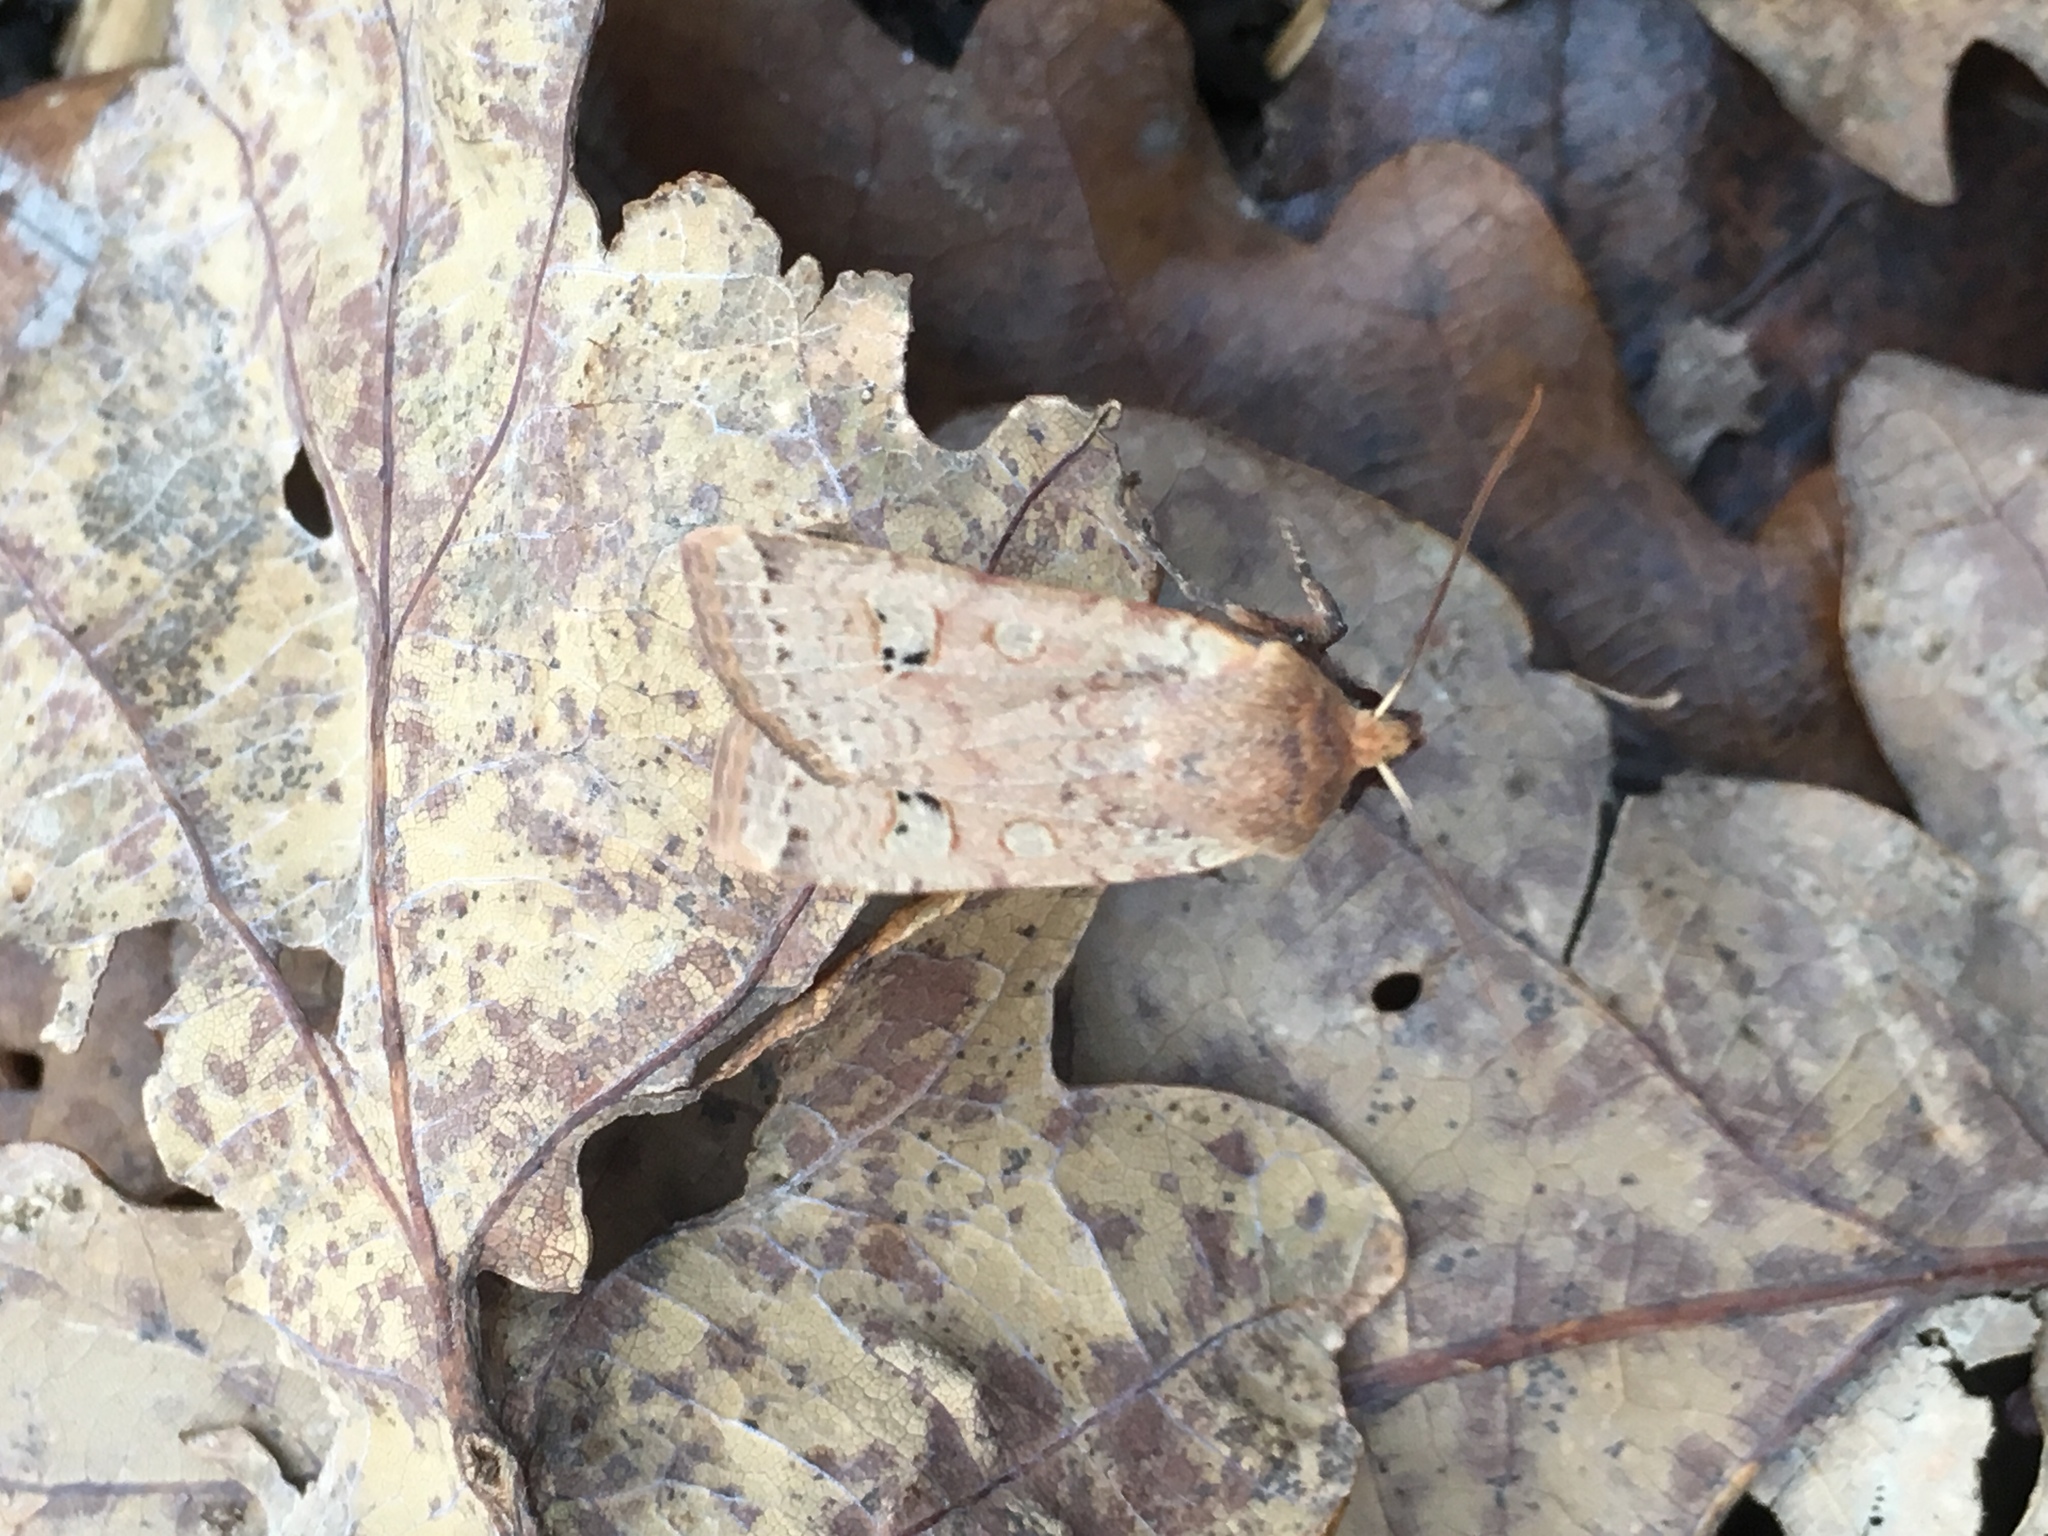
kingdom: Animalia
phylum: Arthropoda
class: Insecta
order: Lepidoptera
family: Noctuidae
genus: Conistra
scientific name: Conistra erythrocephala
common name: Red-headed chestnut
